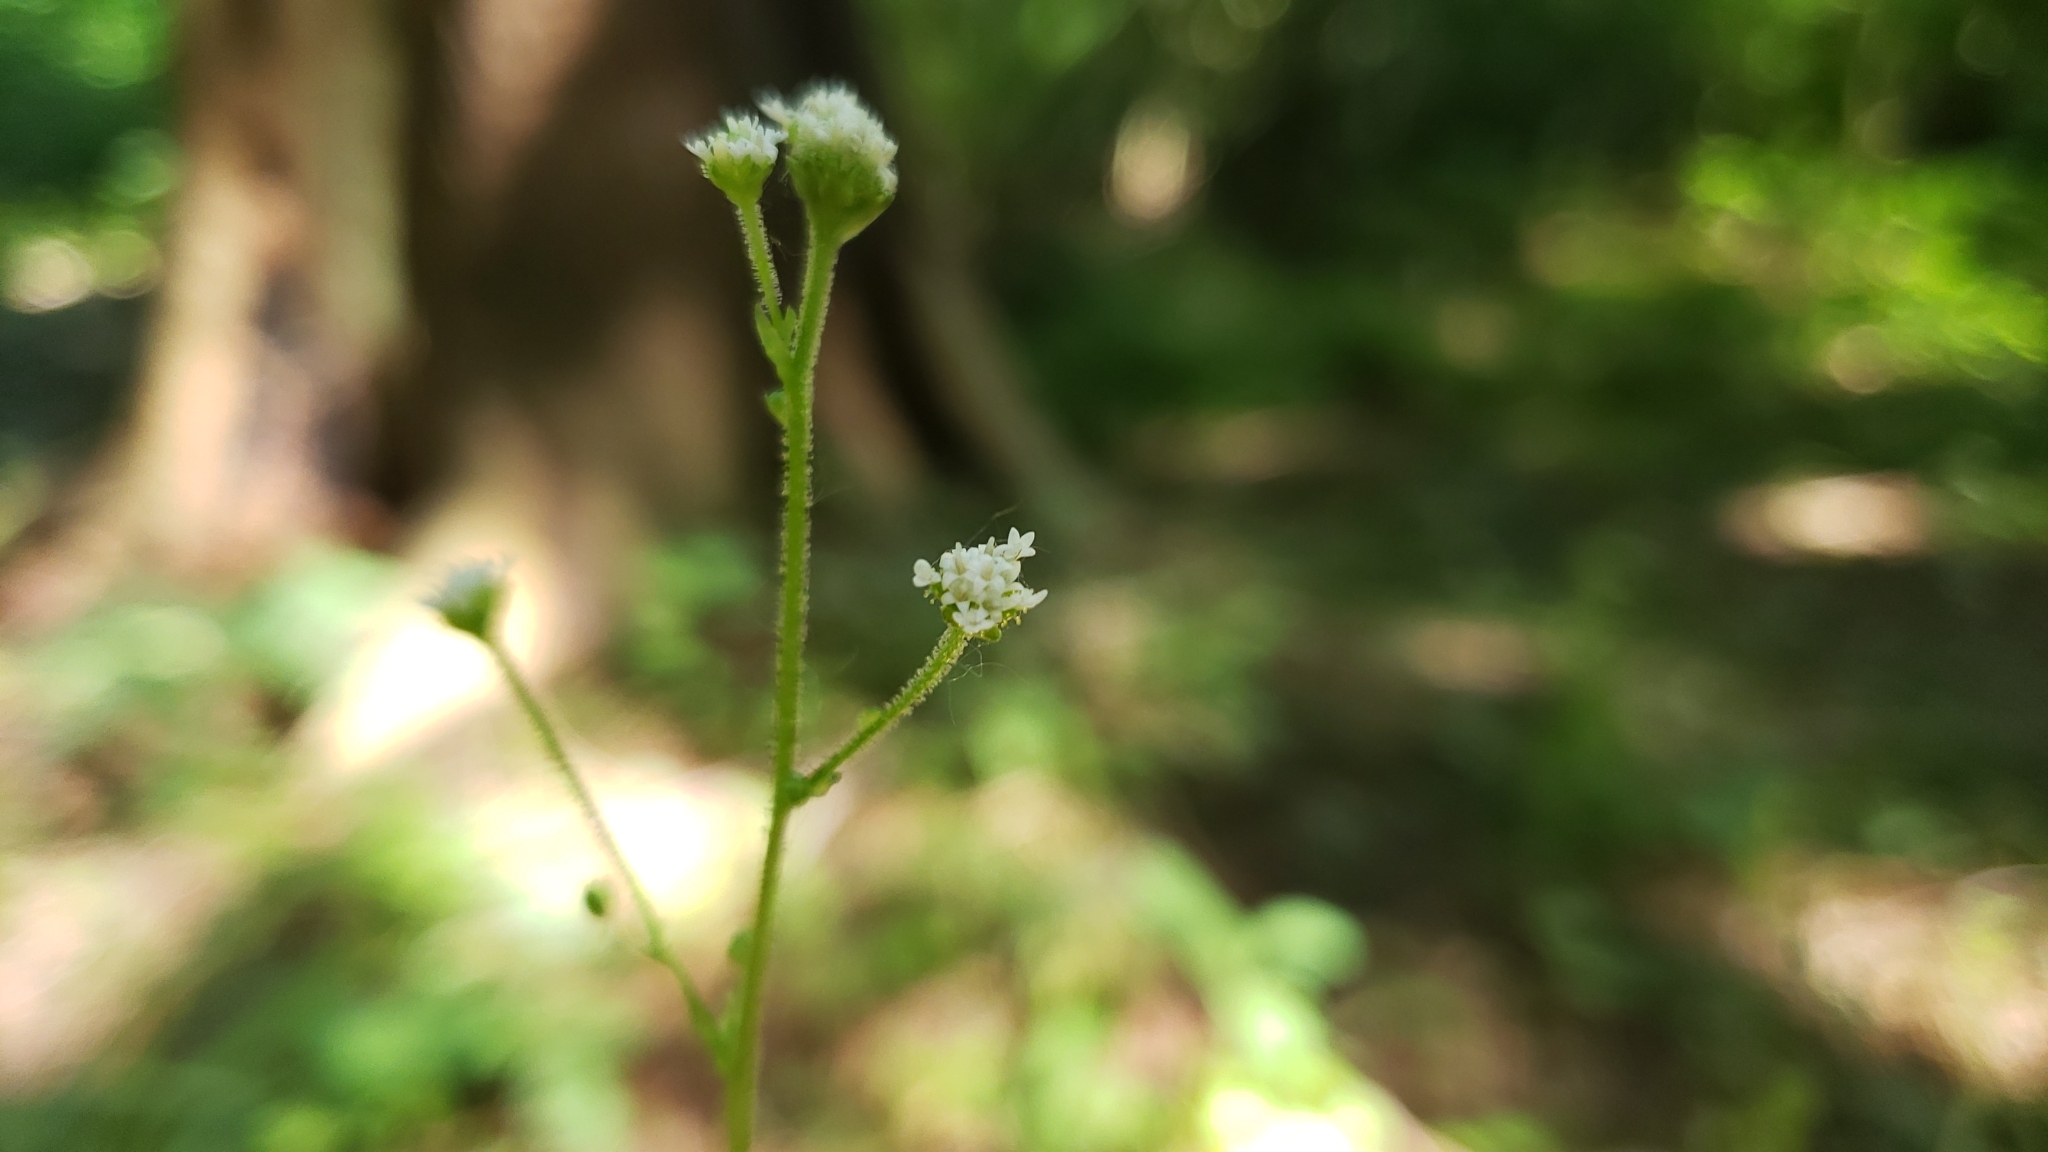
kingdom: Plantae
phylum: Tracheophyta
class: Magnoliopsida
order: Asterales
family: Asteraceae
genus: Adenocaulon
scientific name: Adenocaulon bicolor
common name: Trailplant
